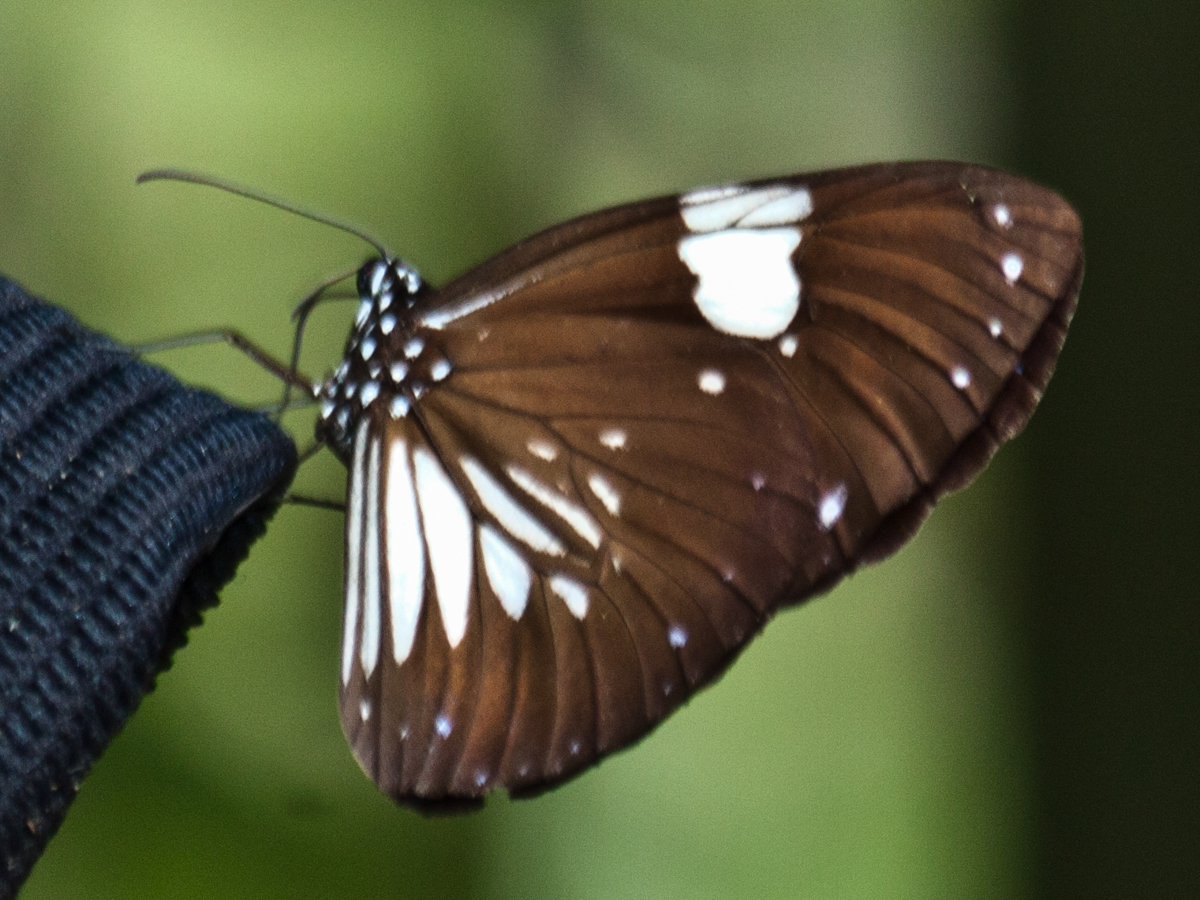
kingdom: Animalia
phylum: Arthropoda
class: Insecta
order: Lepidoptera
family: Nymphalidae
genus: Euploea
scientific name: Euploea radamanthus
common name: Magpie crow butterfly
